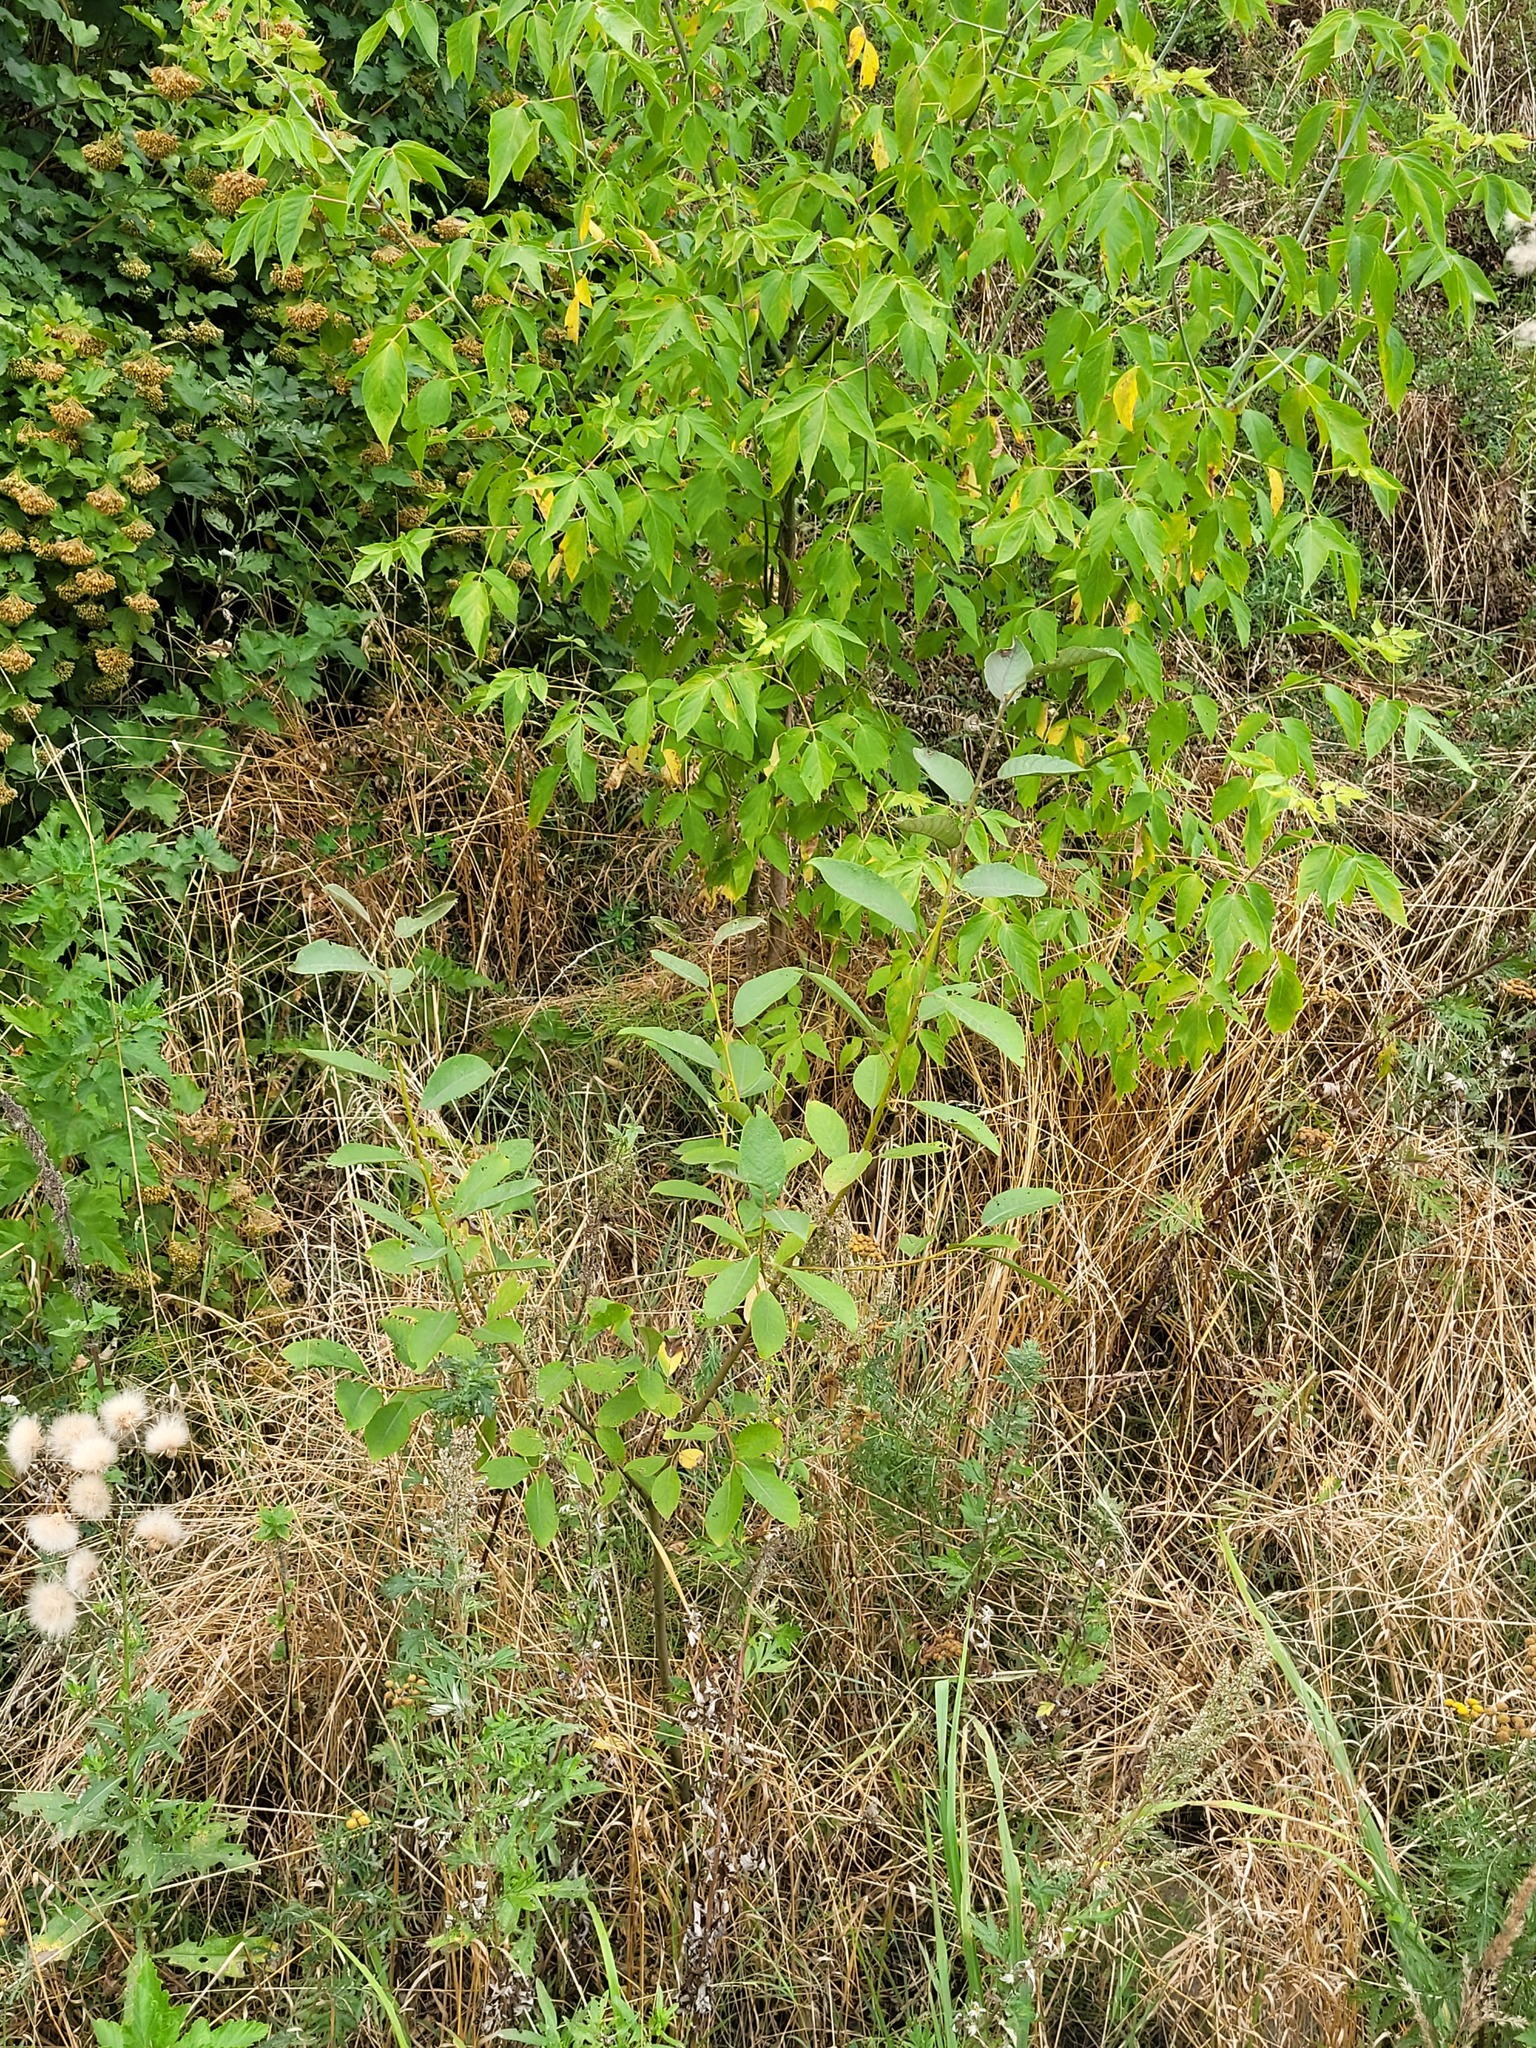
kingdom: Plantae
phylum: Tracheophyta
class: Magnoliopsida
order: Malpighiales
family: Salicaceae
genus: Salix
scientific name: Salix caprea
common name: Goat willow
